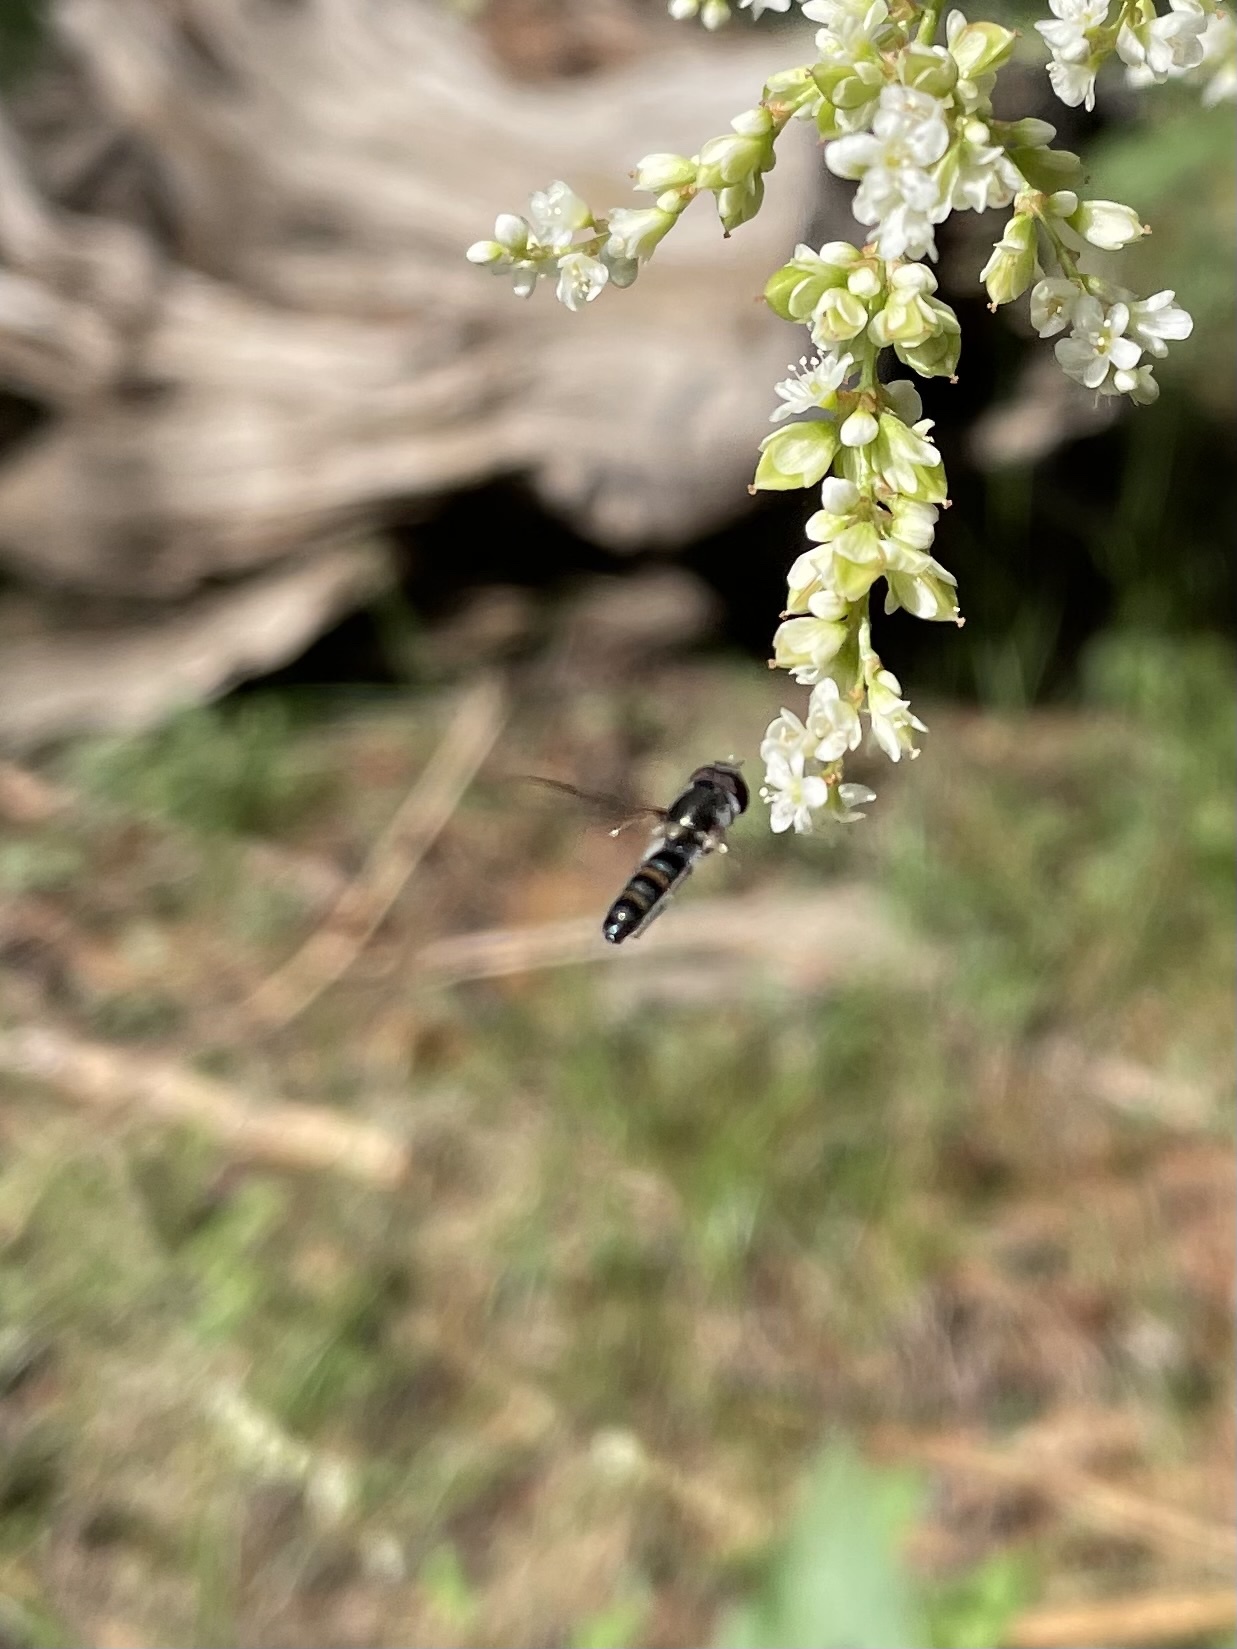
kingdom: Animalia
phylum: Arthropoda
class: Insecta
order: Diptera
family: Syrphidae
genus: Pseudoscaeva
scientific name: Pseudoscaeva diversifasciata
